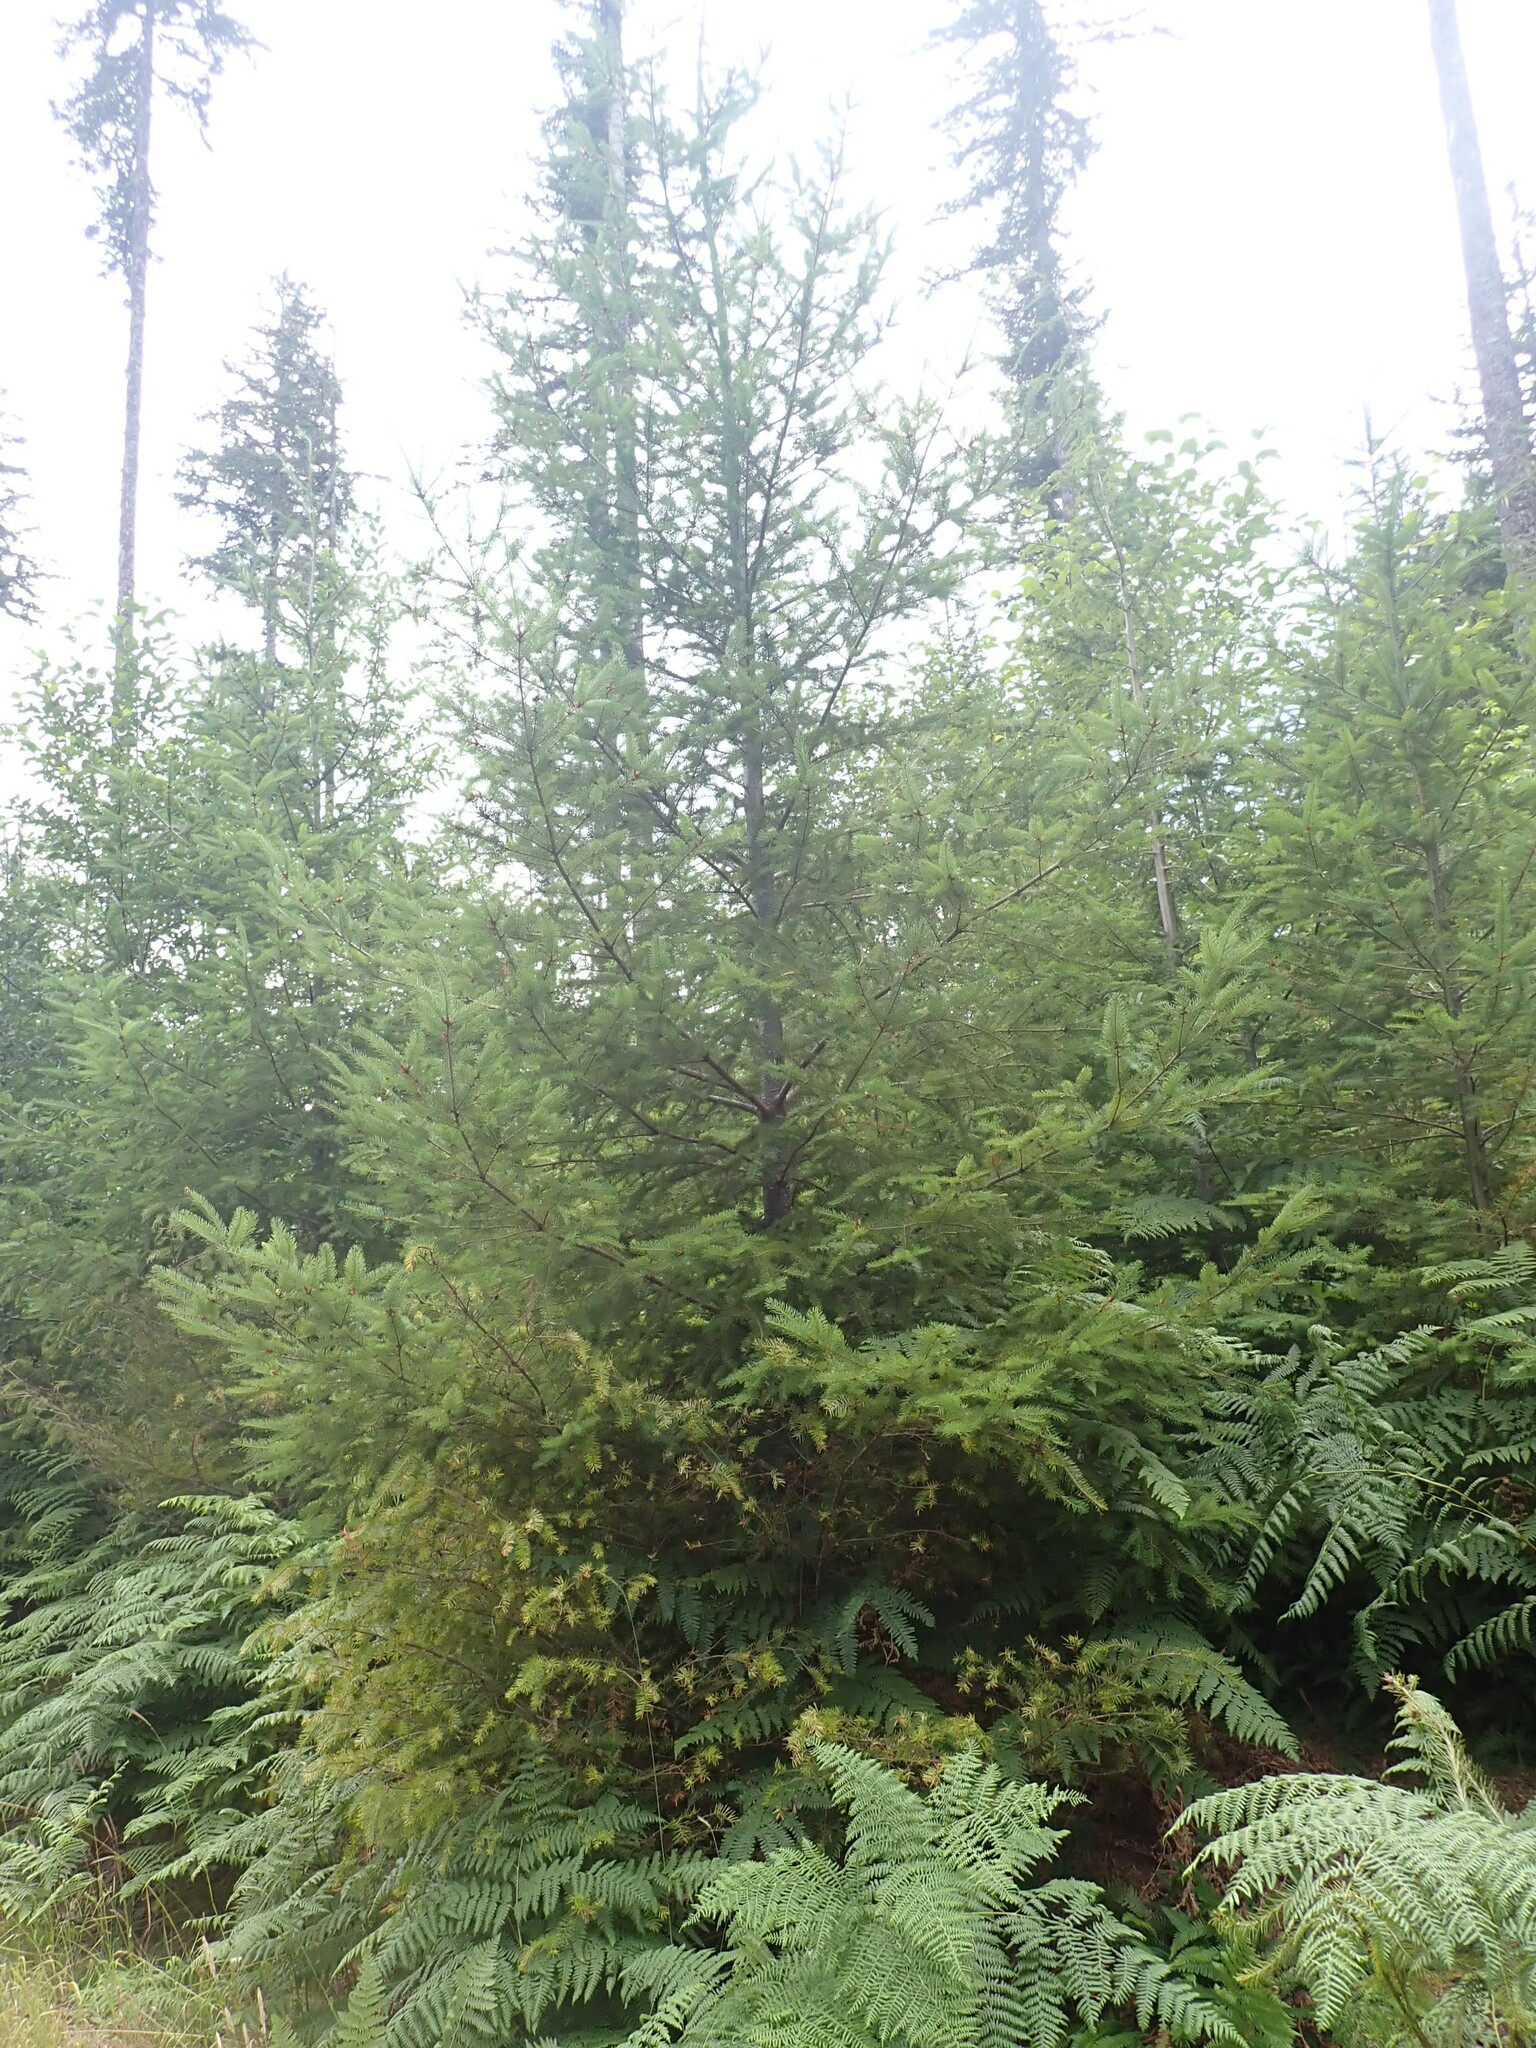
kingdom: Plantae
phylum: Tracheophyta
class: Pinopsida
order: Pinales
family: Pinaceae
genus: Pseudotsuga
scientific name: Pseudotsuga menziesii
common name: Douglas fir
